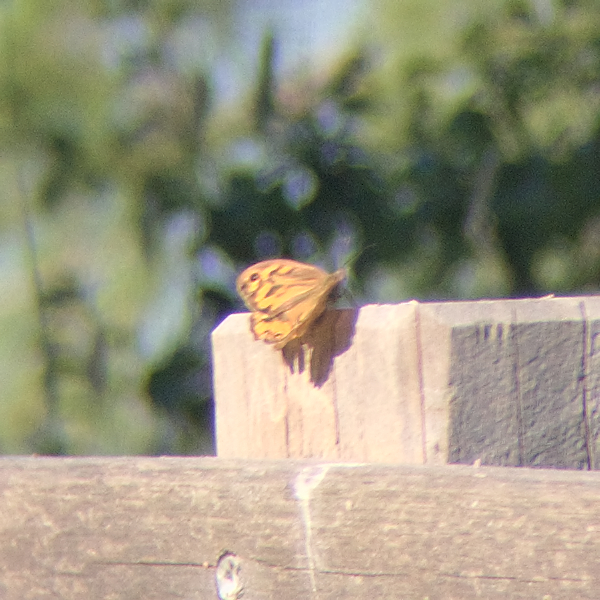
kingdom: Animalia
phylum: Arthropoda
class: Insecta
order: Lepidoptera
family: Nymphalidae
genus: Heteronympha
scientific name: Heteronympha merope
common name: Common brown
